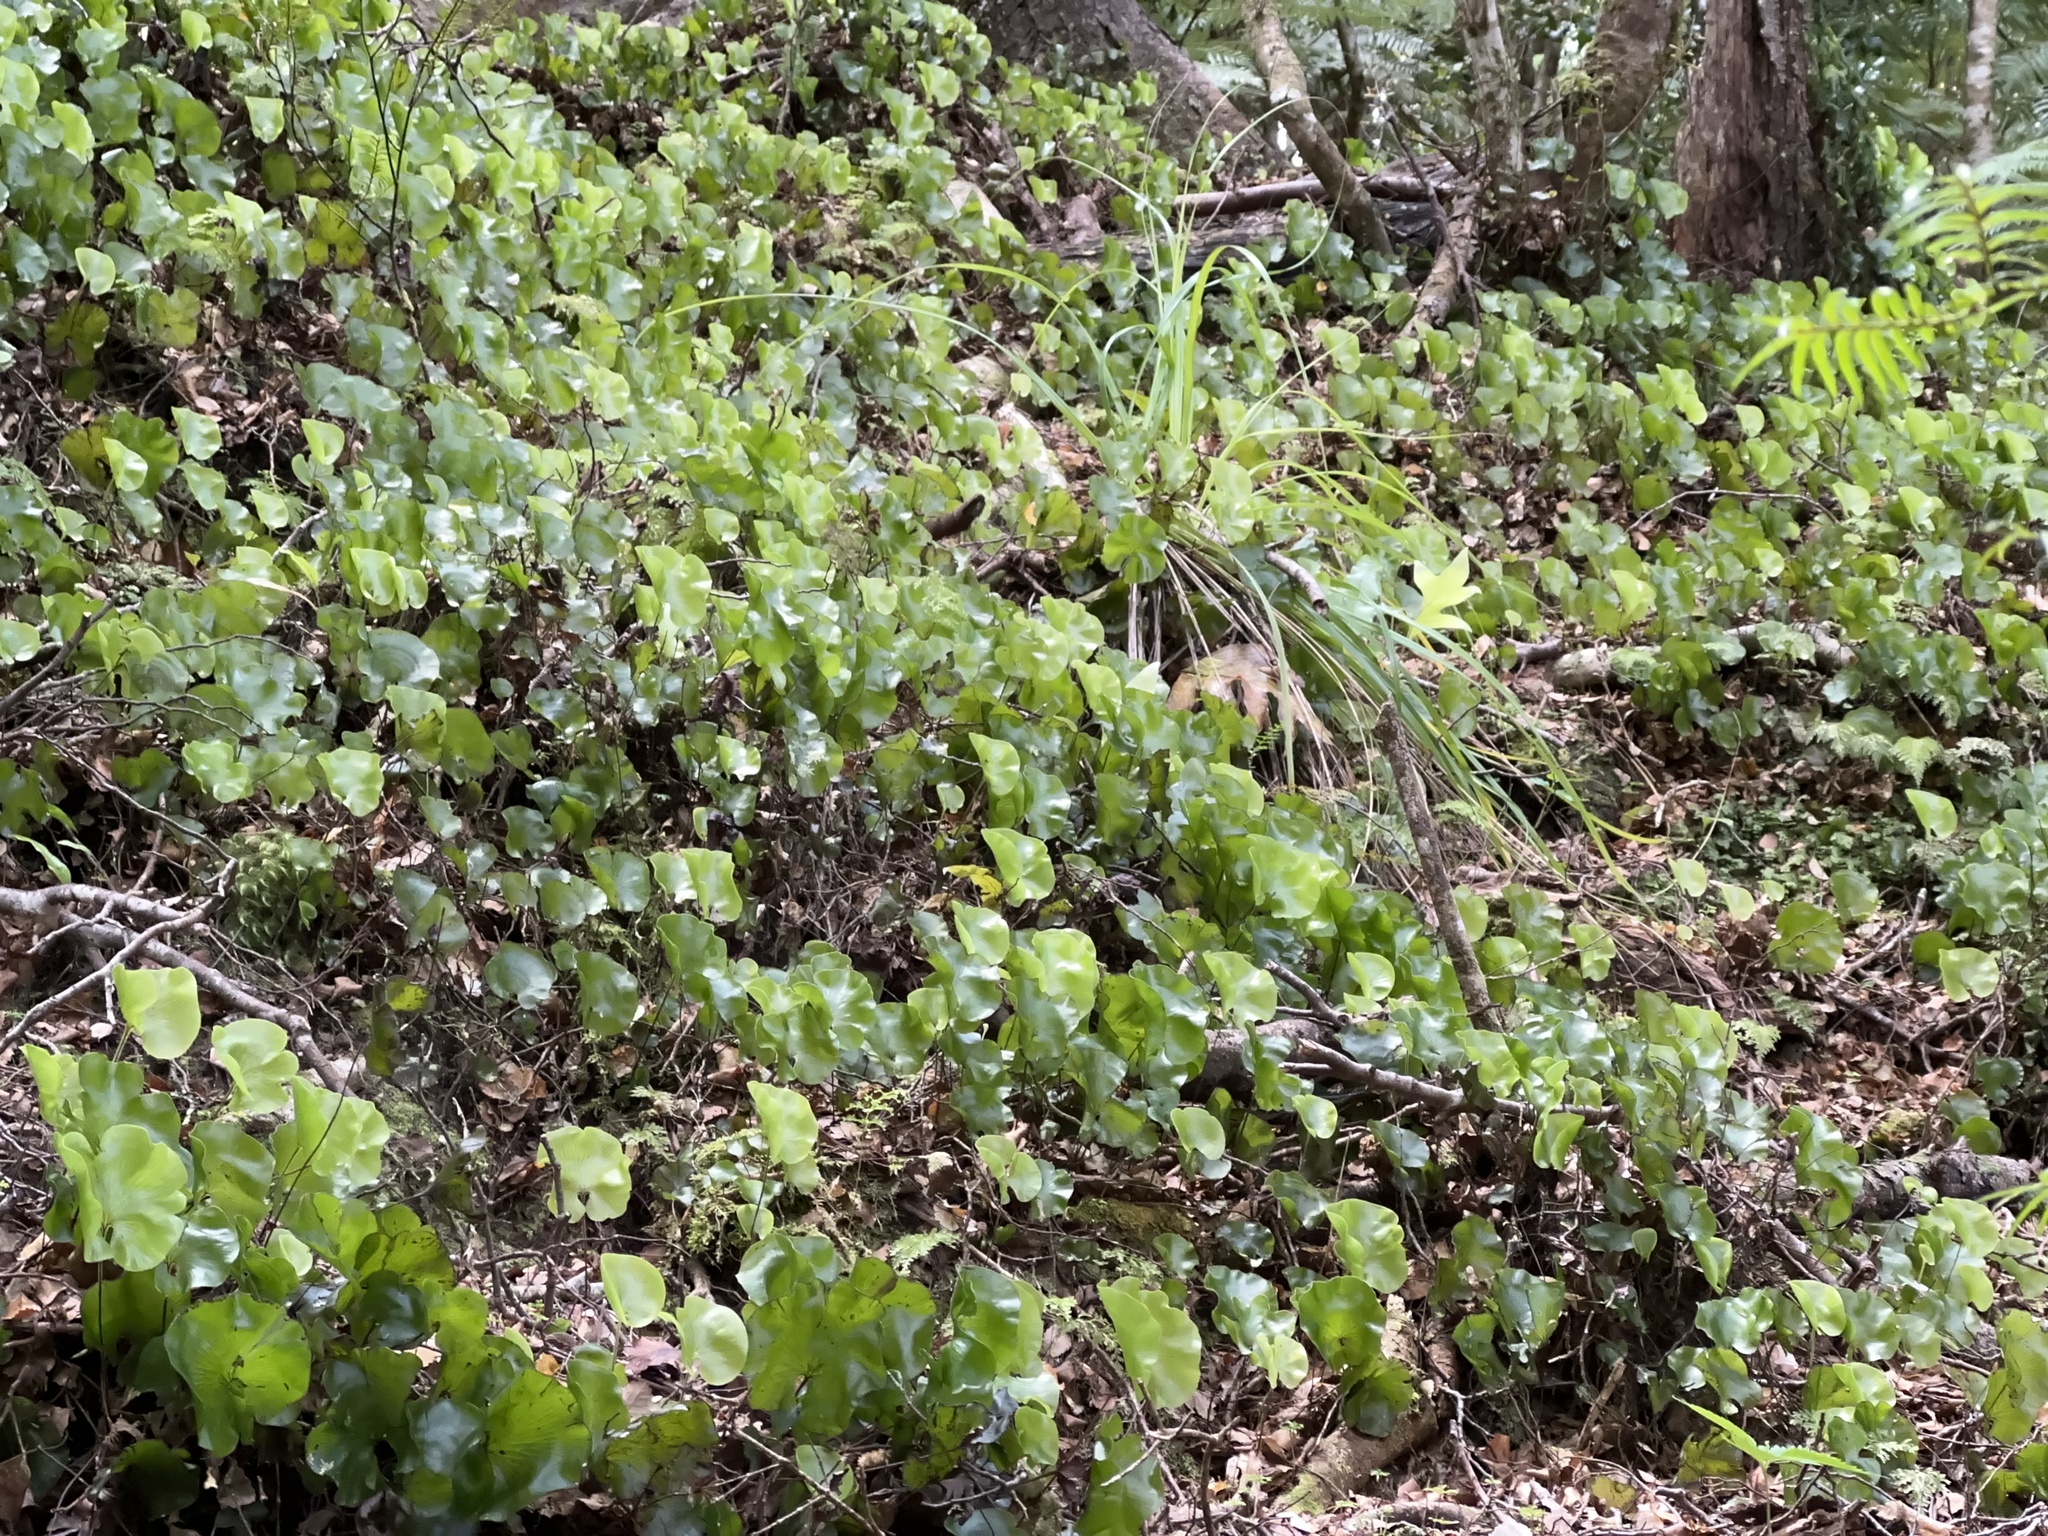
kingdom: Plantae
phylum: Tracheophyta
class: Polypodiopsida
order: Hymenophyllales
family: Hymenophyllaceae
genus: Hymenophyllum
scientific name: Hymenophyllum nephrophyllum
